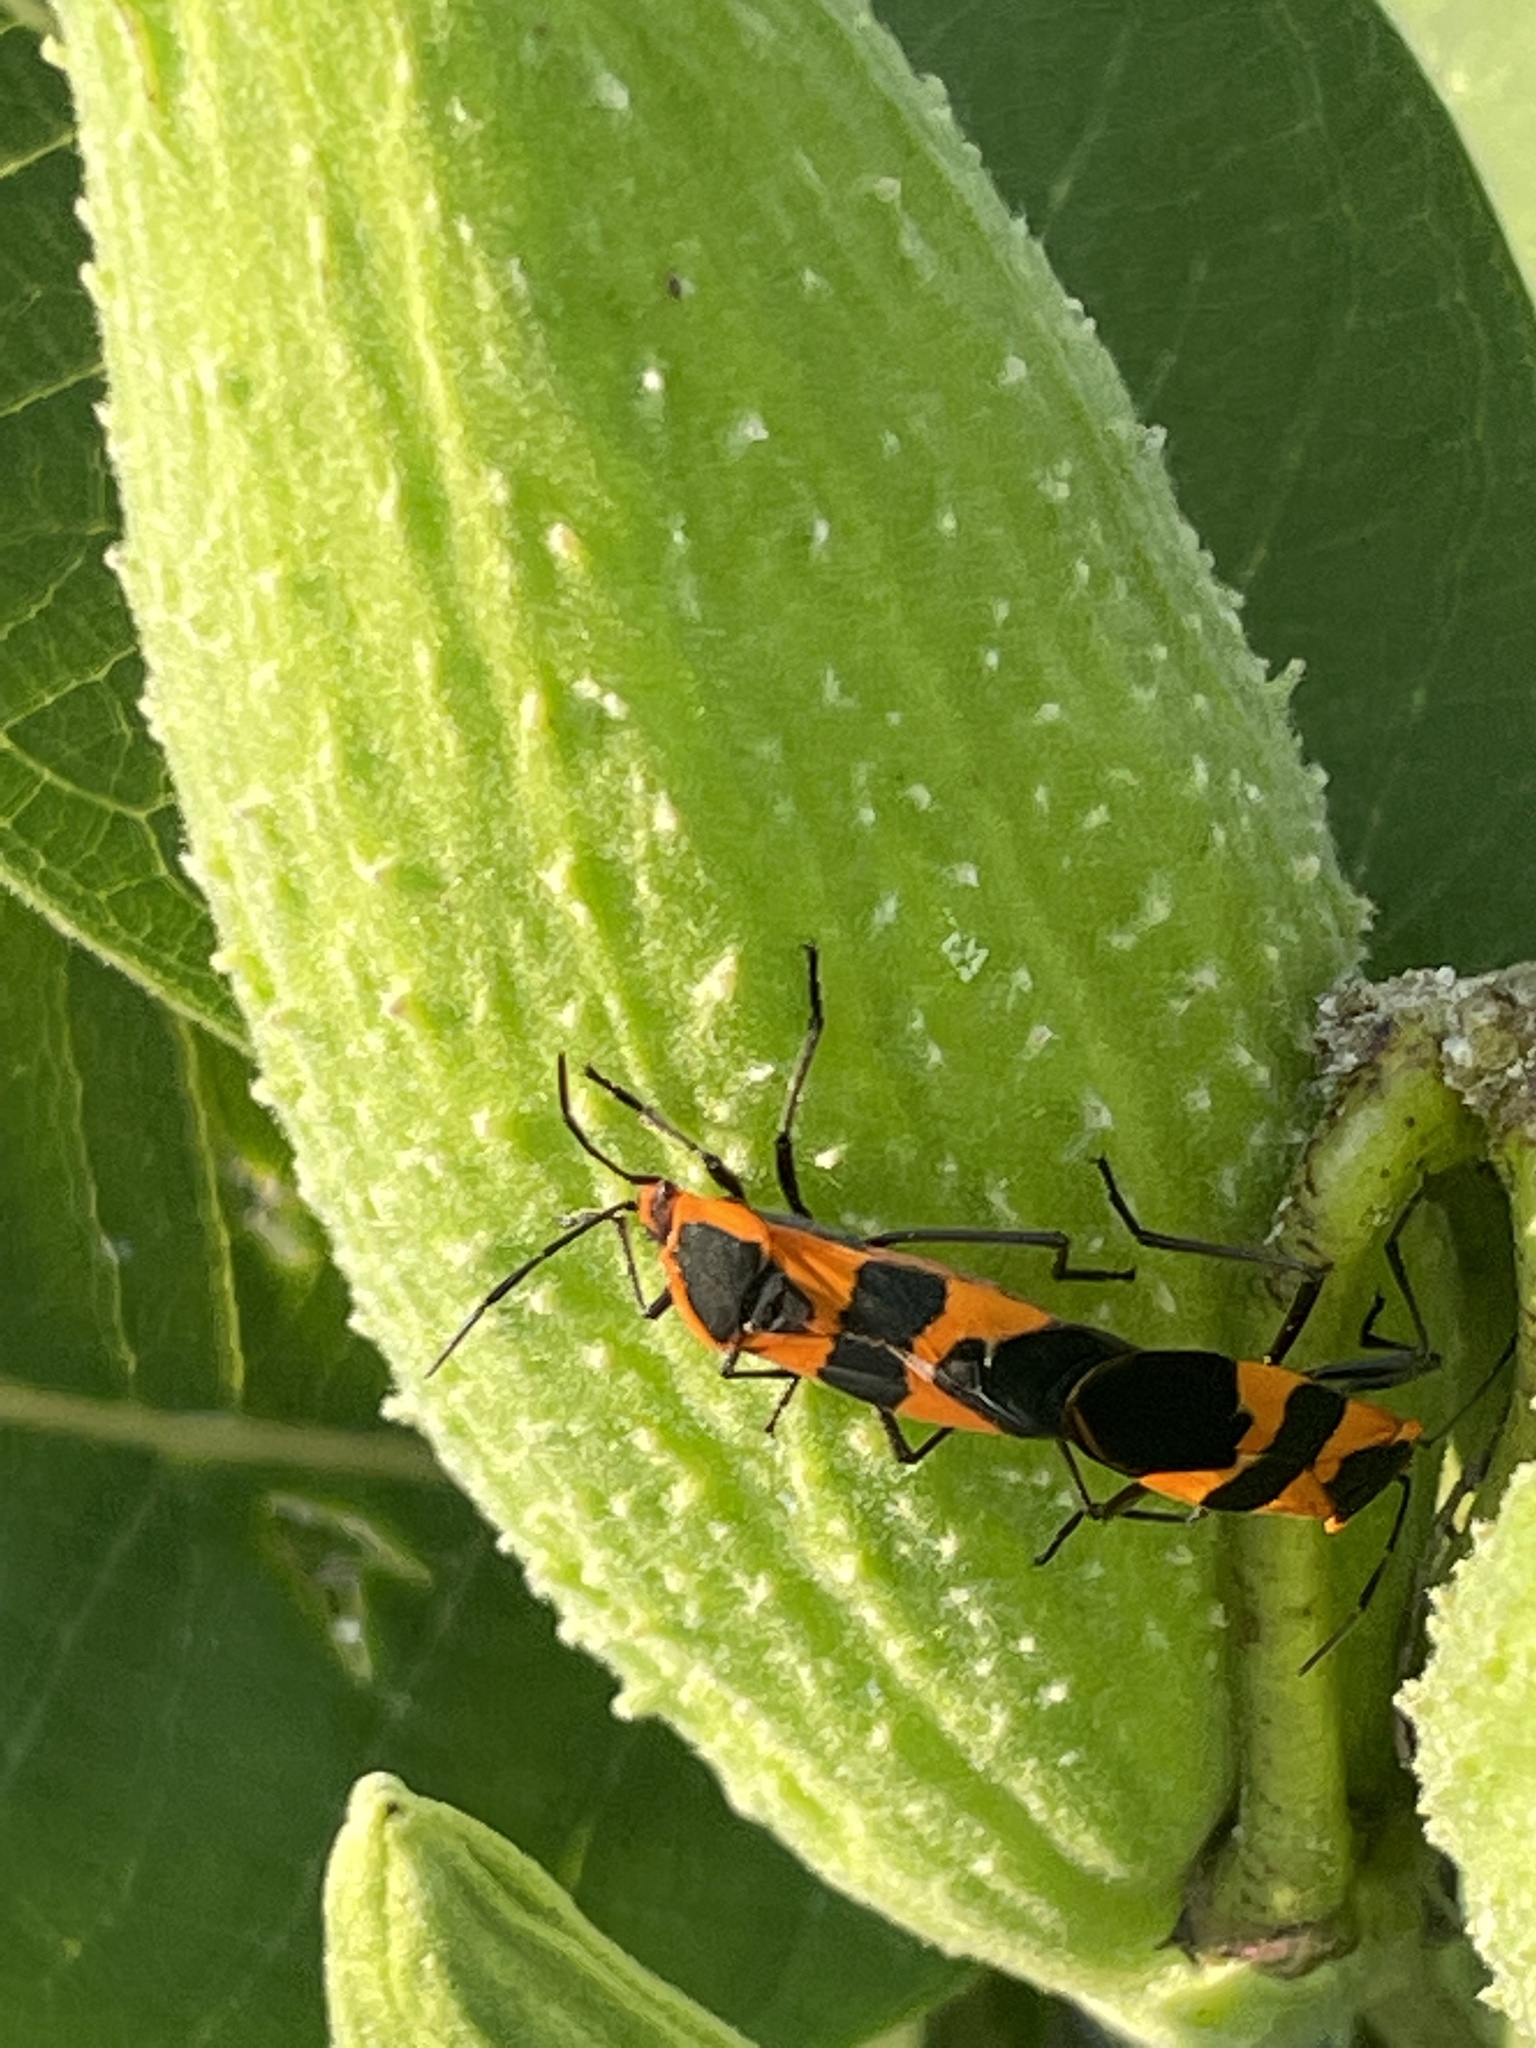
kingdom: Animalia
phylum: Arthropoda
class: Insecta
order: Hemiptera
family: Lygaeidae
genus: Oncopeltus
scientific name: Oncopeltus fasciatus
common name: Large milkweed bug
